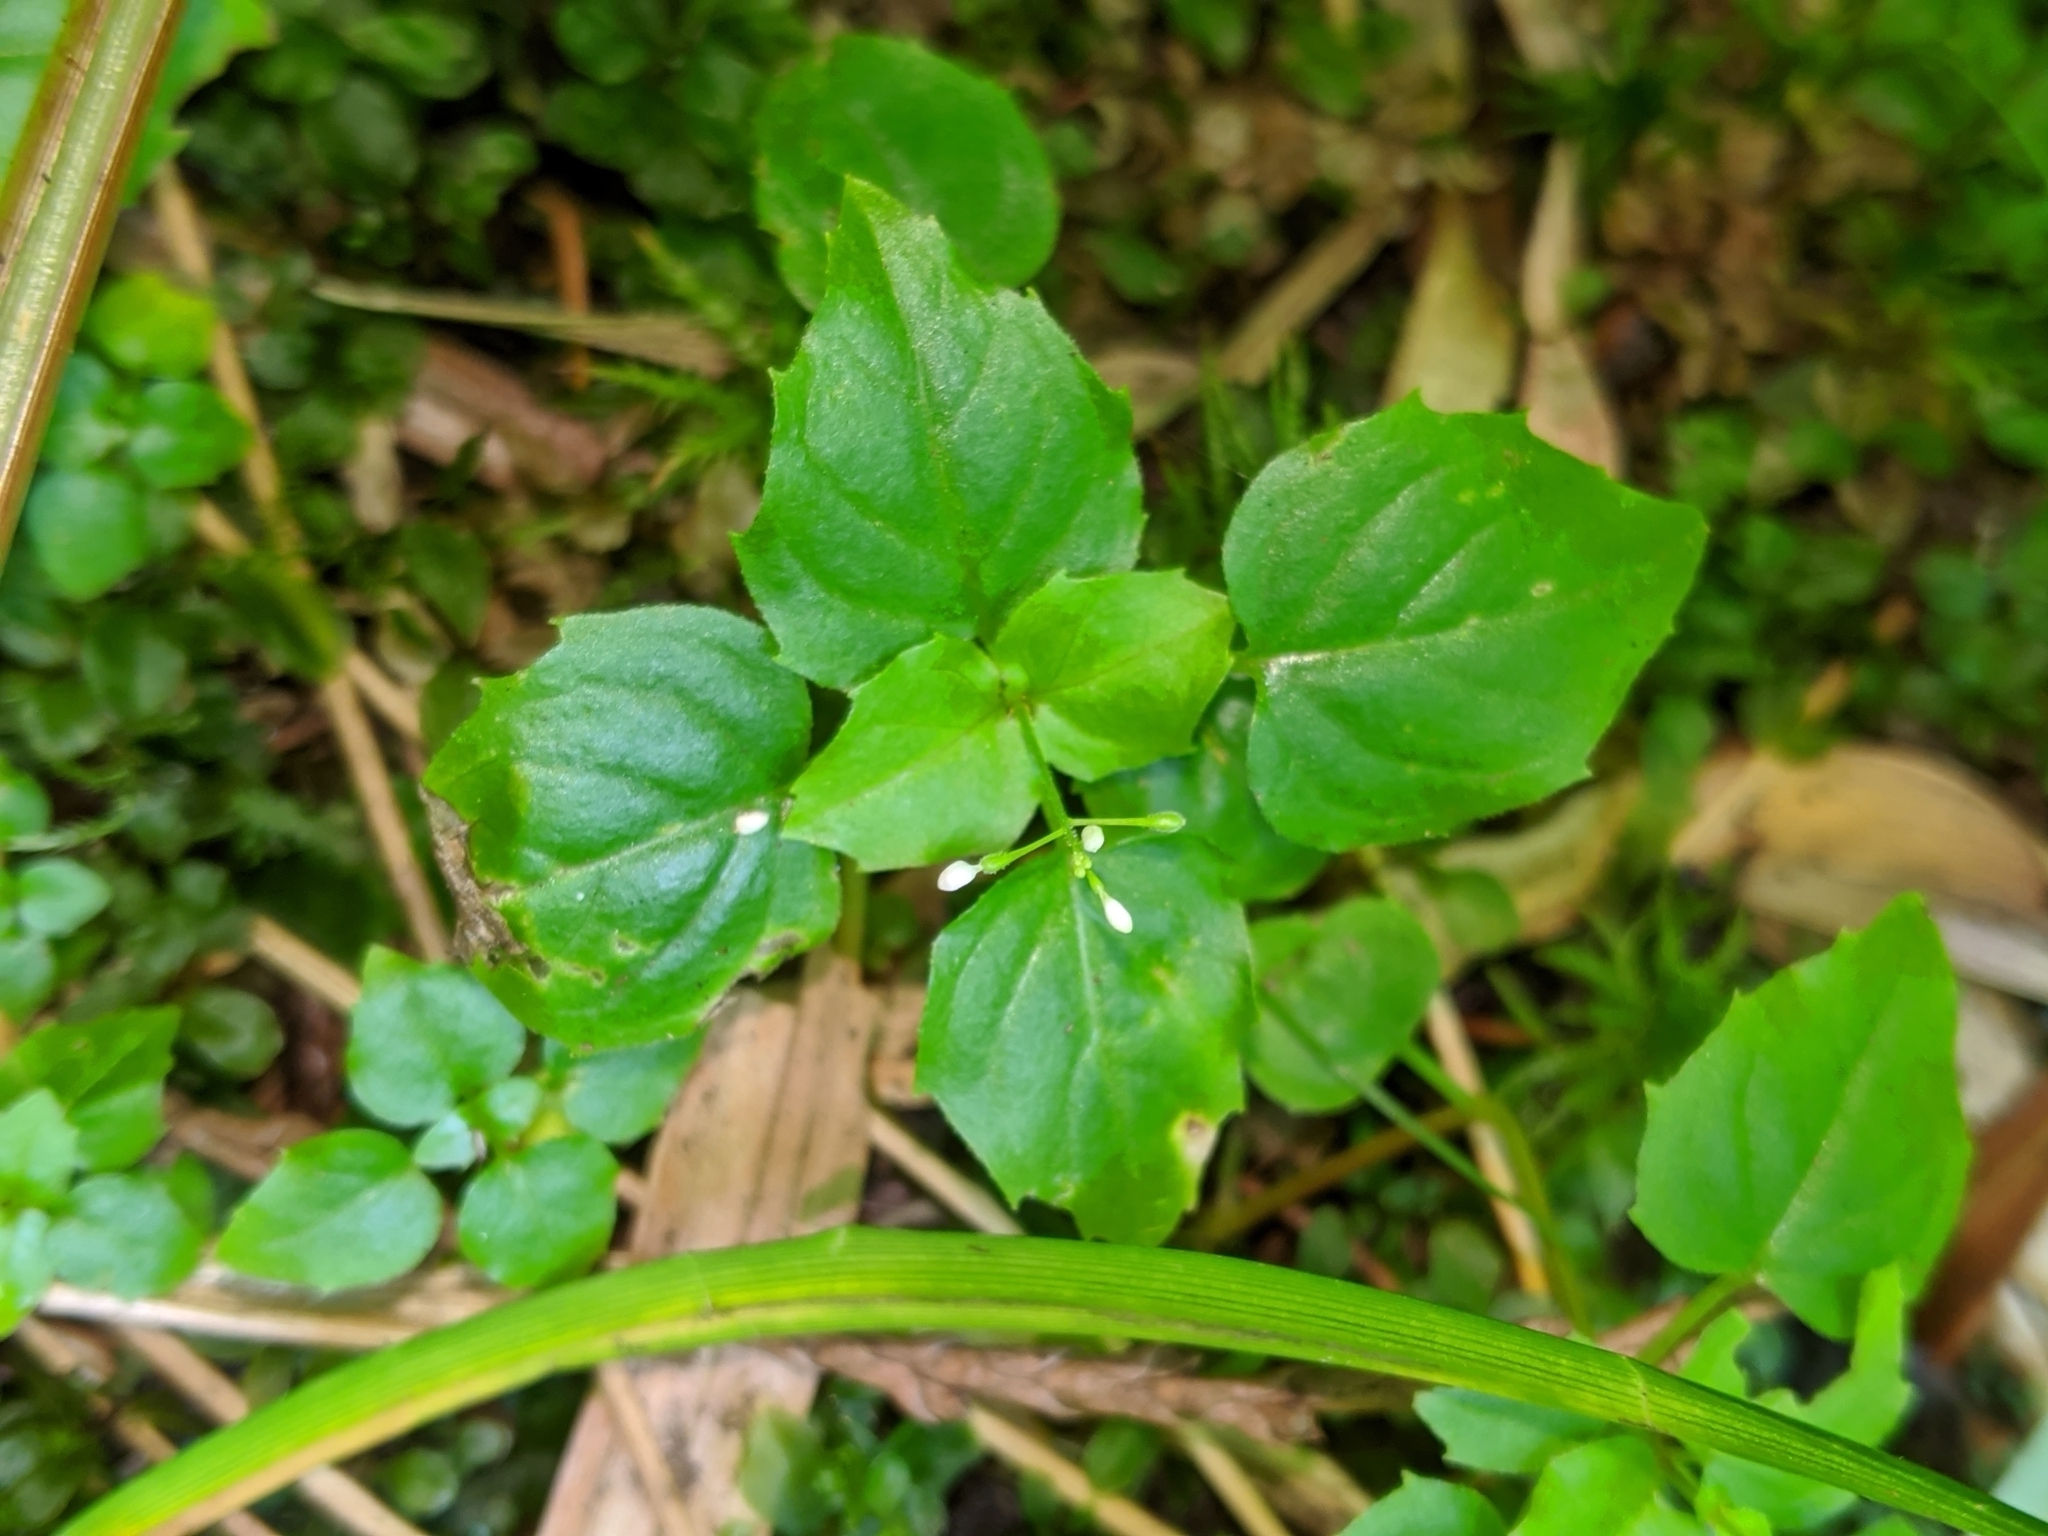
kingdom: Plantae
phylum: Tracheophyta
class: Magnoliopsida
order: Myrtales
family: Onagraceae
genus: Circaea
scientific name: Circaea alpina
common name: Alpine enchanter's-nightshade
